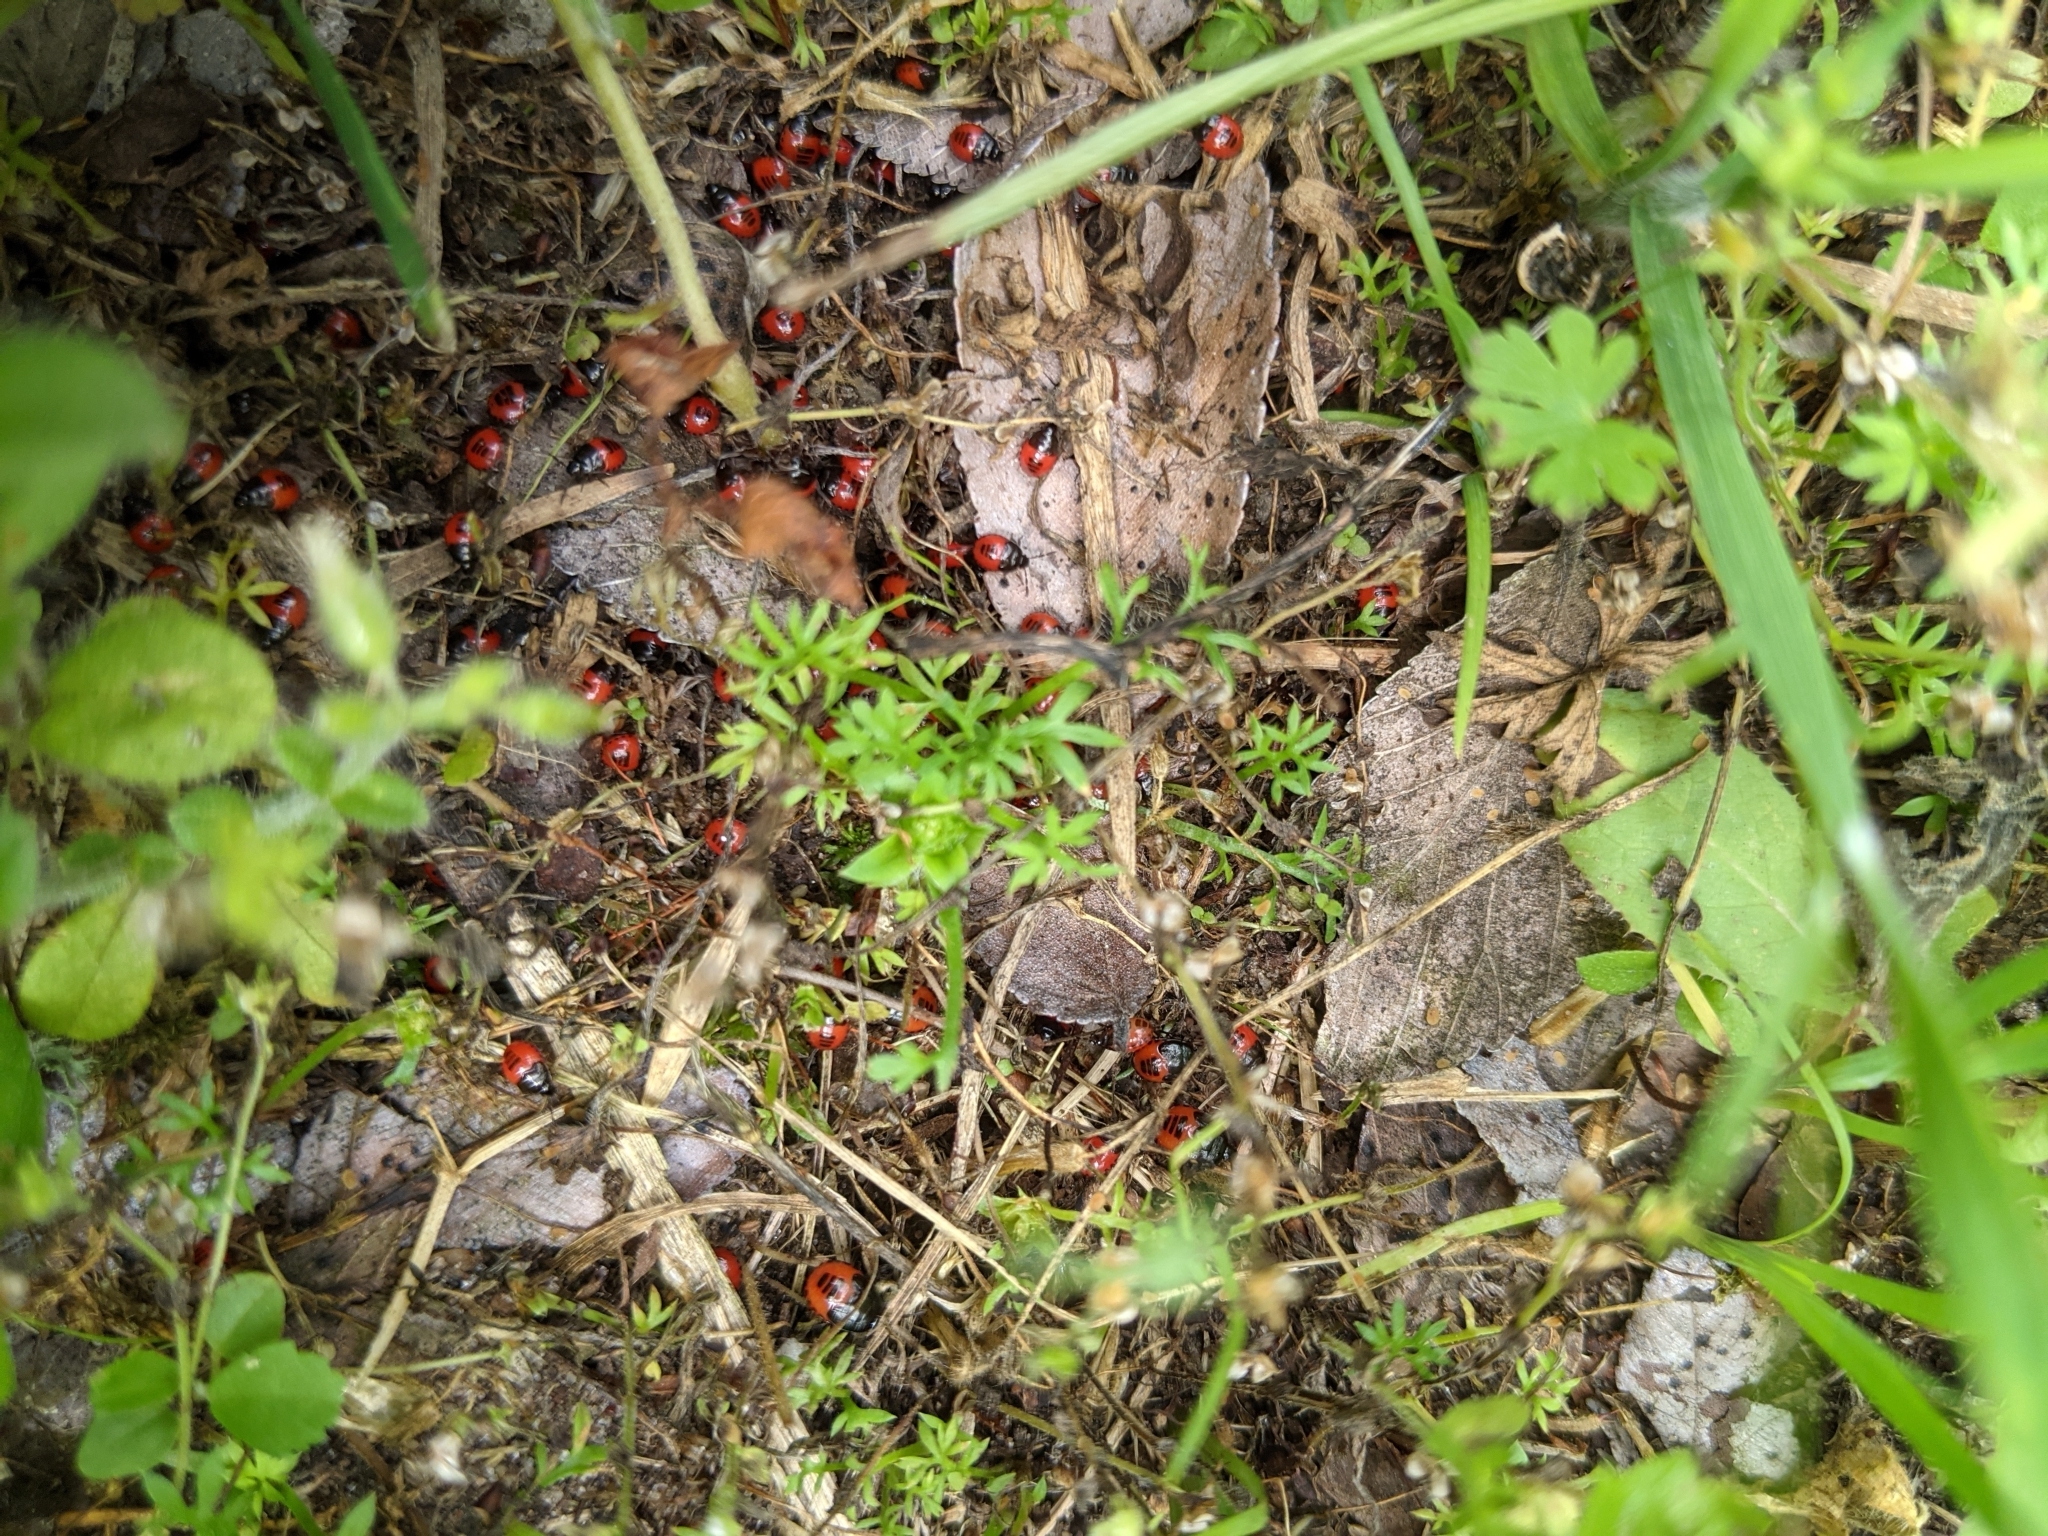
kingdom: Animalia
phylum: Arthropoda
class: Insecta
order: Hemiptera
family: Cydnidae
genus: Sehirus
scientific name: Sehirus cinctus
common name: White-margined burrower bug
